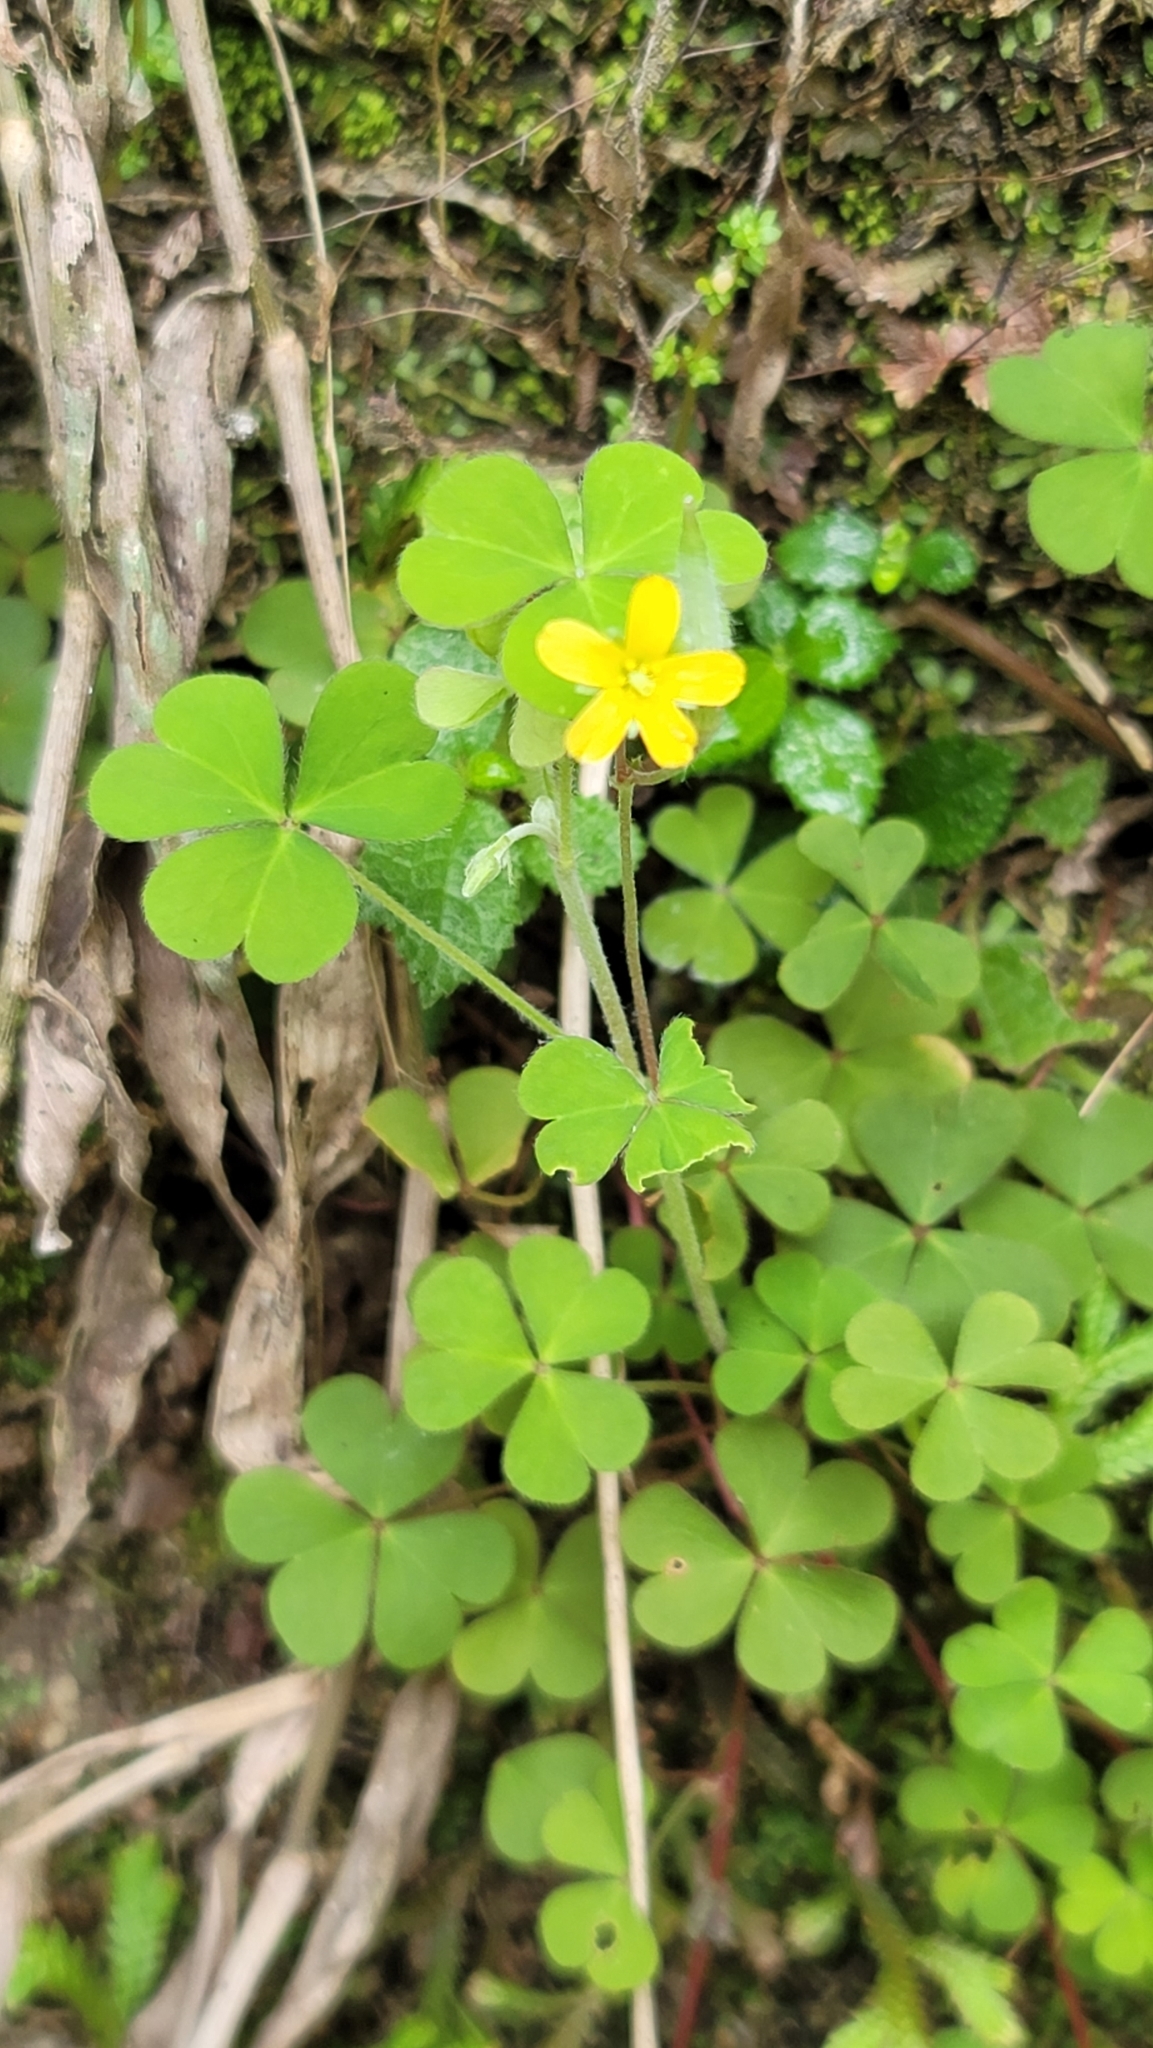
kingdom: Plantae
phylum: Tracheophyta
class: Magnoliopsida
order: Oxalidales
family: Oxalidaceae
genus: Oxalis
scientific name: Oxalis corniculata
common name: Procumbent yellow-sorrel
